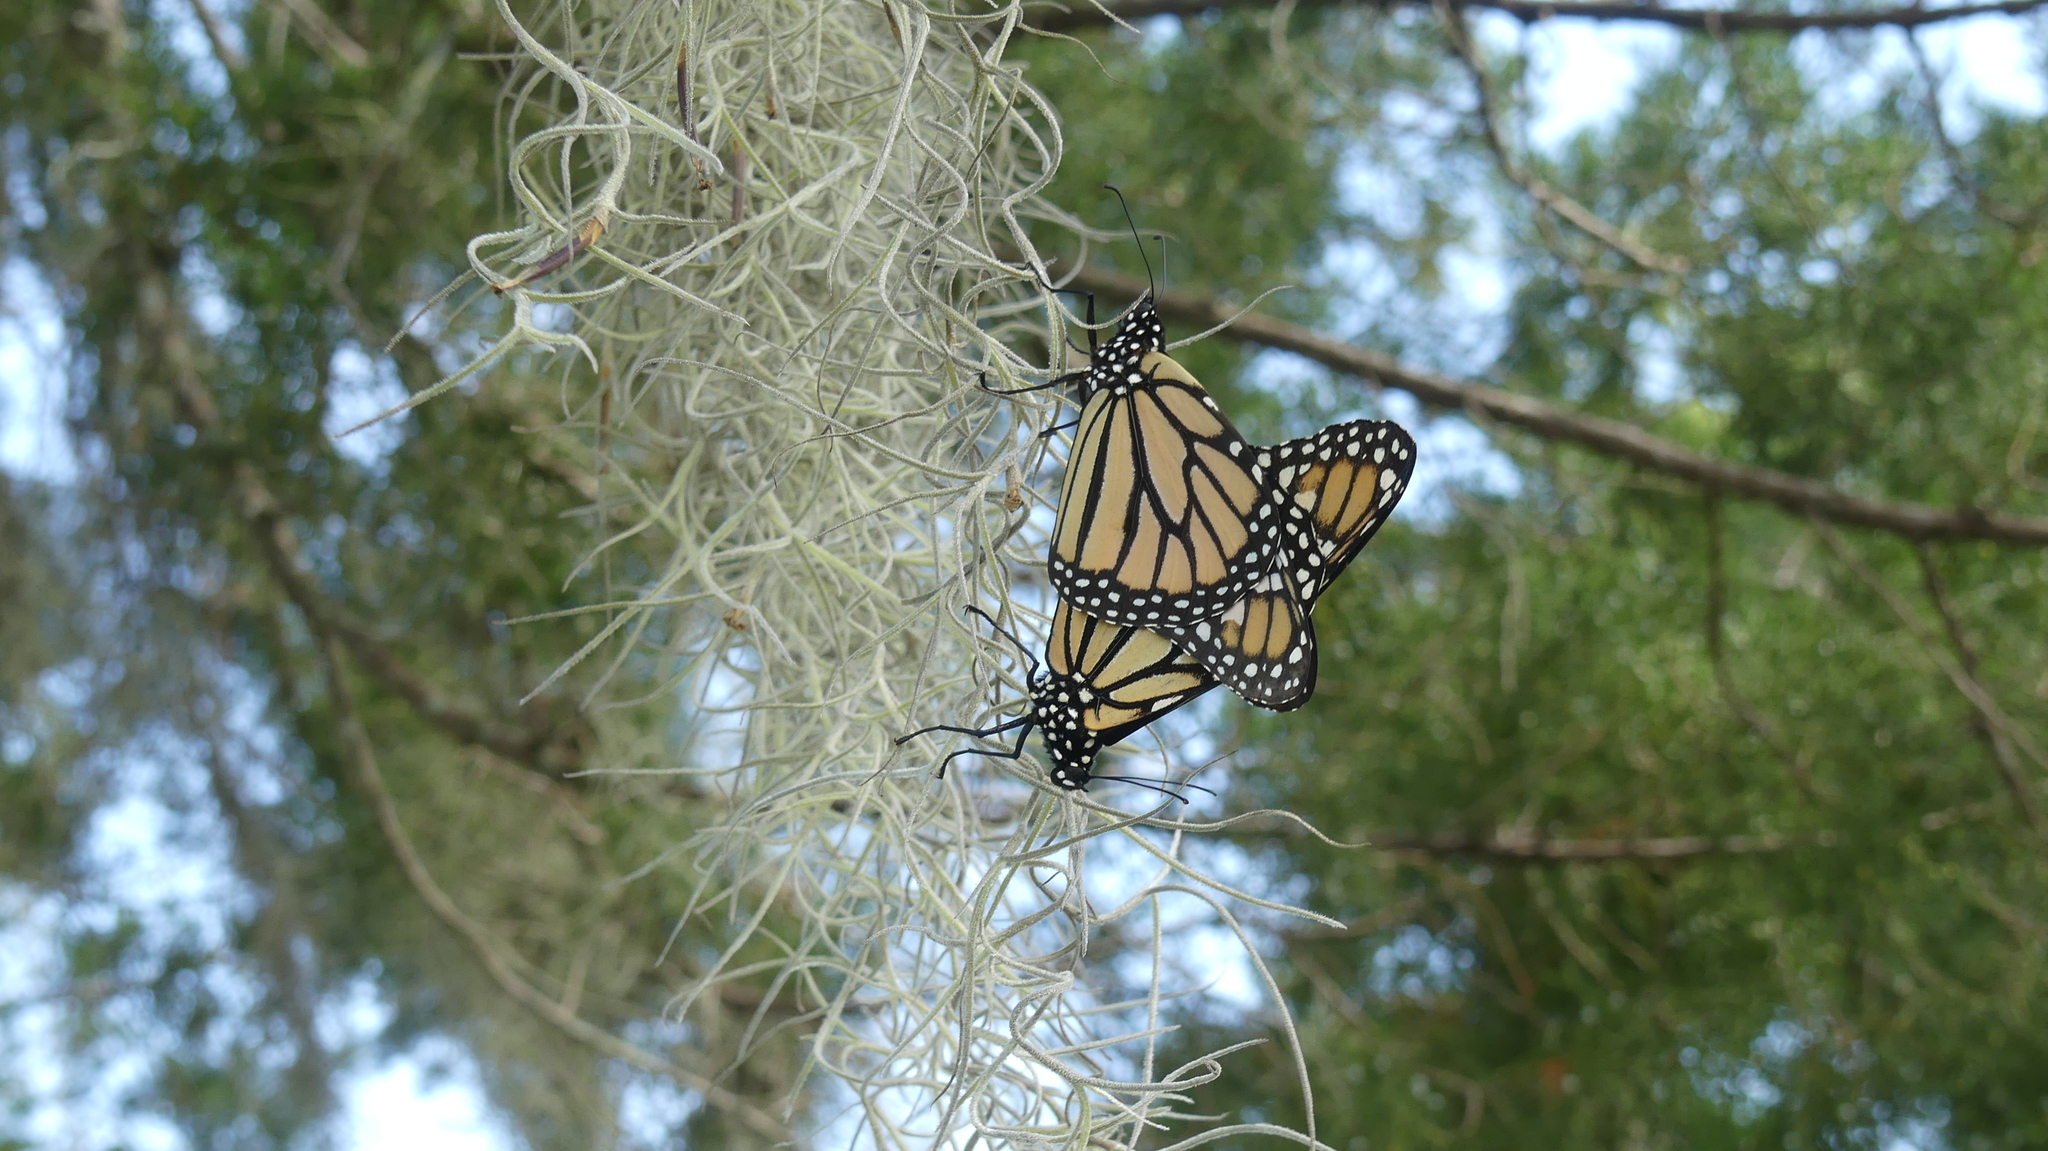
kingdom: Animalia
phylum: Arthropoda
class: Insecta
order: Lepidoptera
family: Nymphalidae
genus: Danaus
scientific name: Danaus plexippus
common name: Monarch
